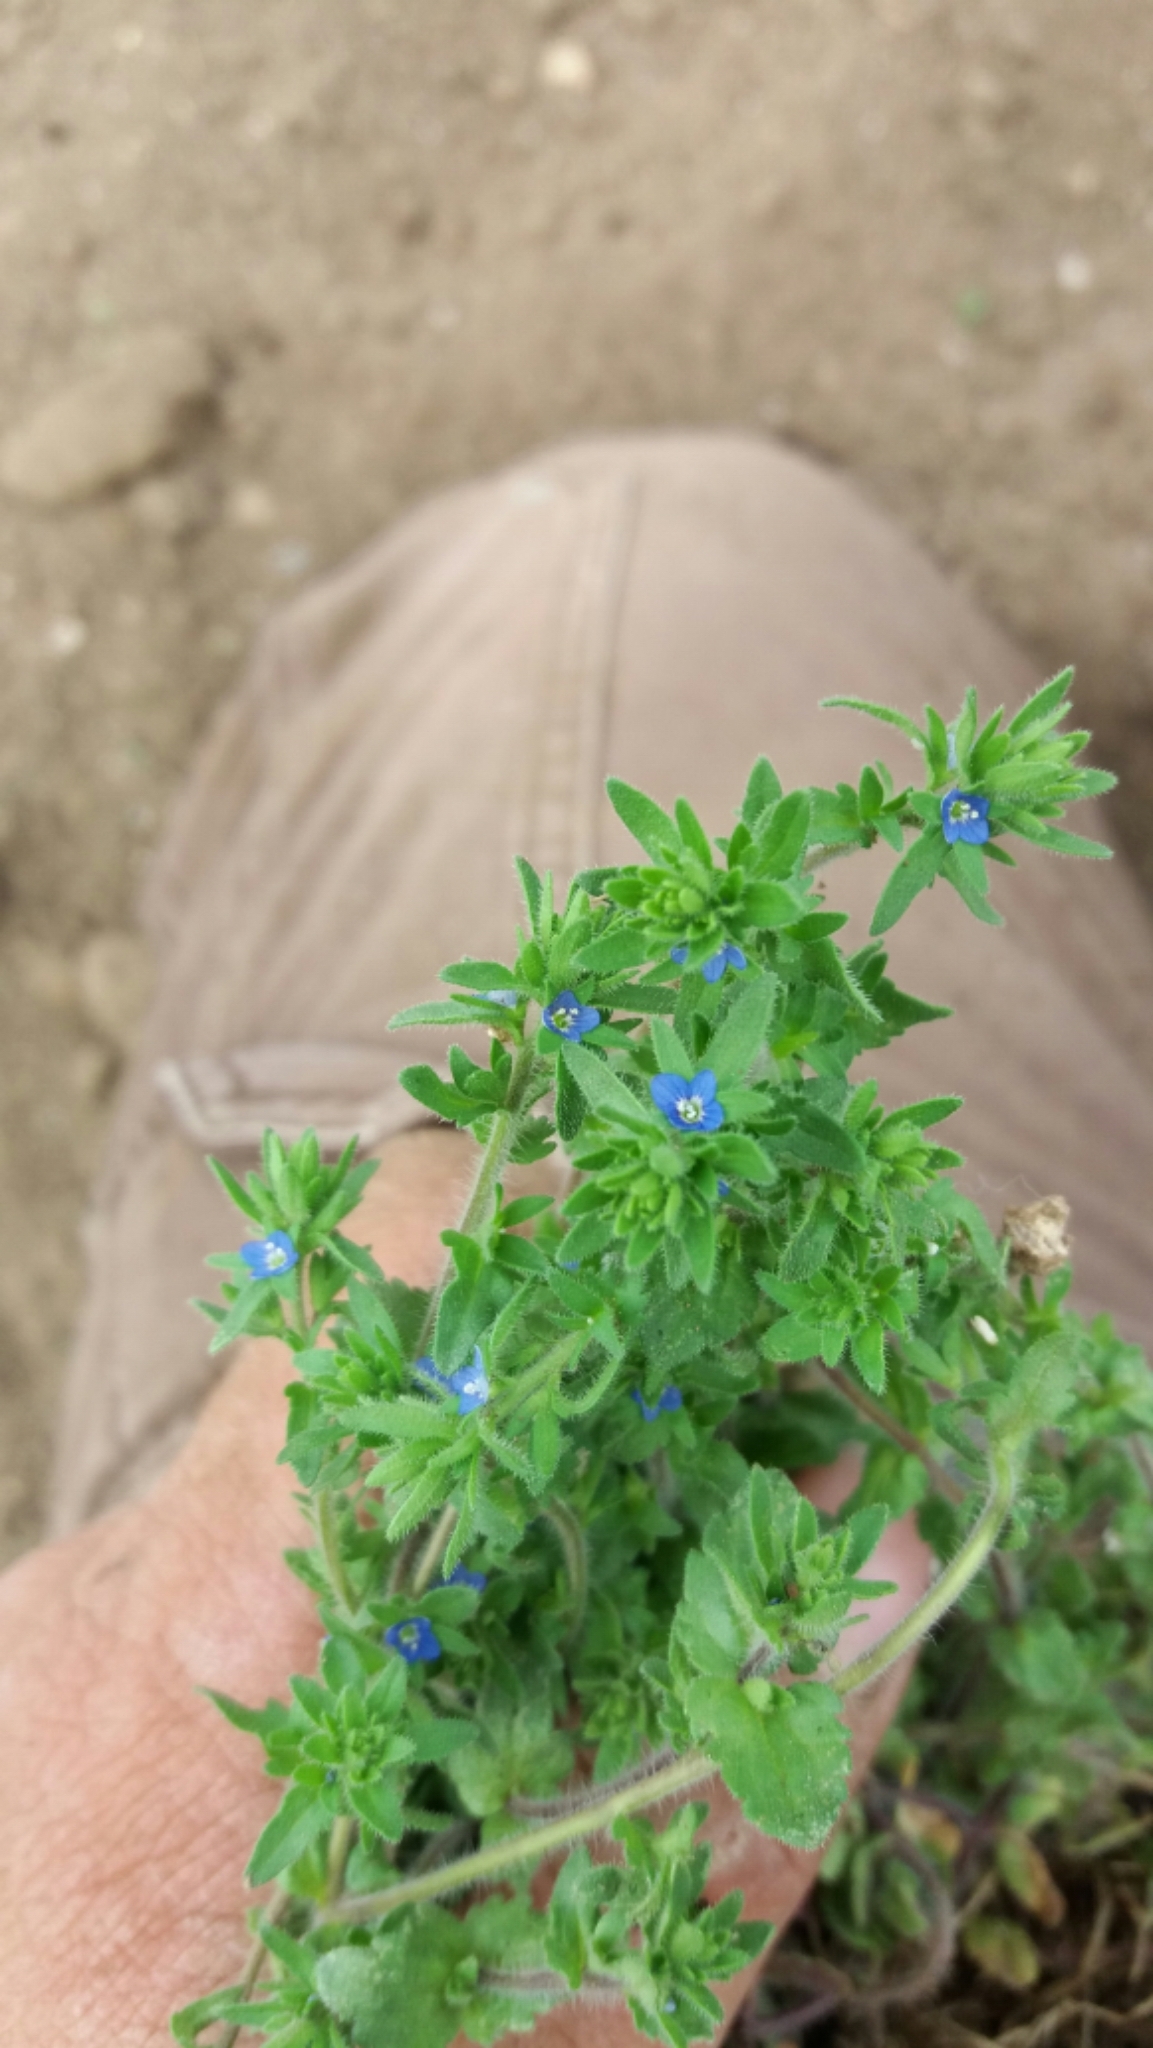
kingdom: Plantae
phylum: Tracheophyta
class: Magnoliopsida
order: Lamiales
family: Plantaginaceae
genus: Veronica
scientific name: Veronica arvensis
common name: Corn speedwell
